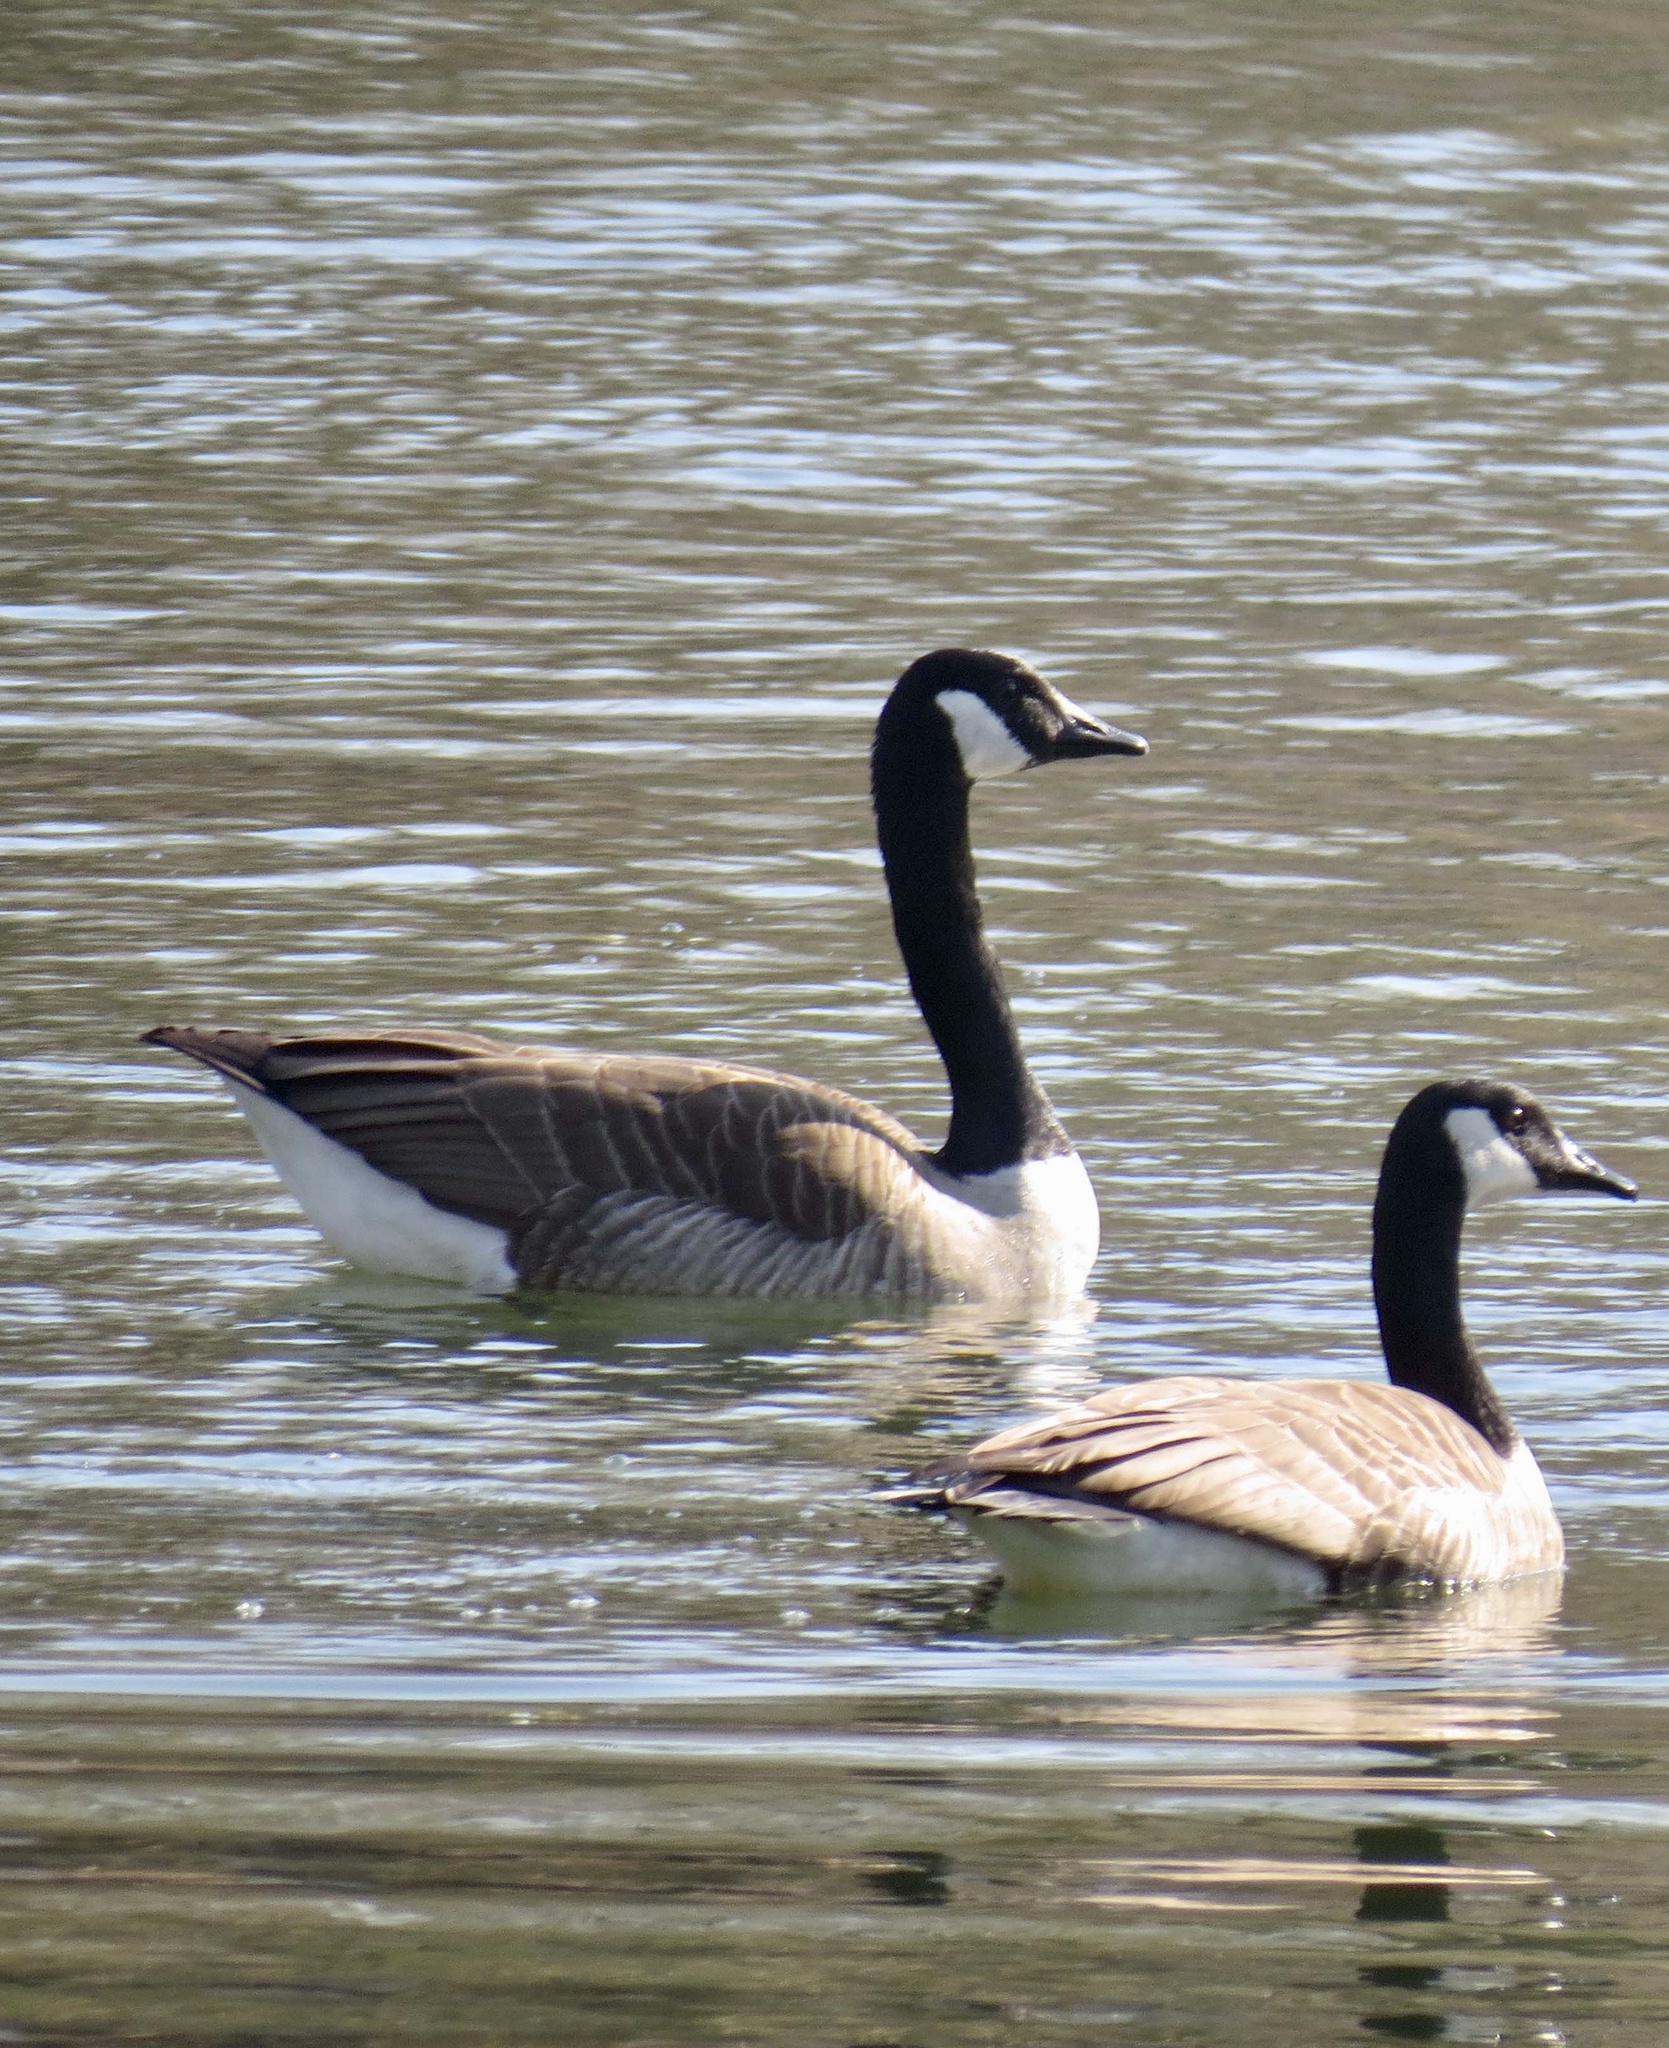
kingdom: Animalia
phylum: Chordata
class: Aves
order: Anseriformes
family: Anatidae
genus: Branta
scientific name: Branta canadensis
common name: Canada goose
